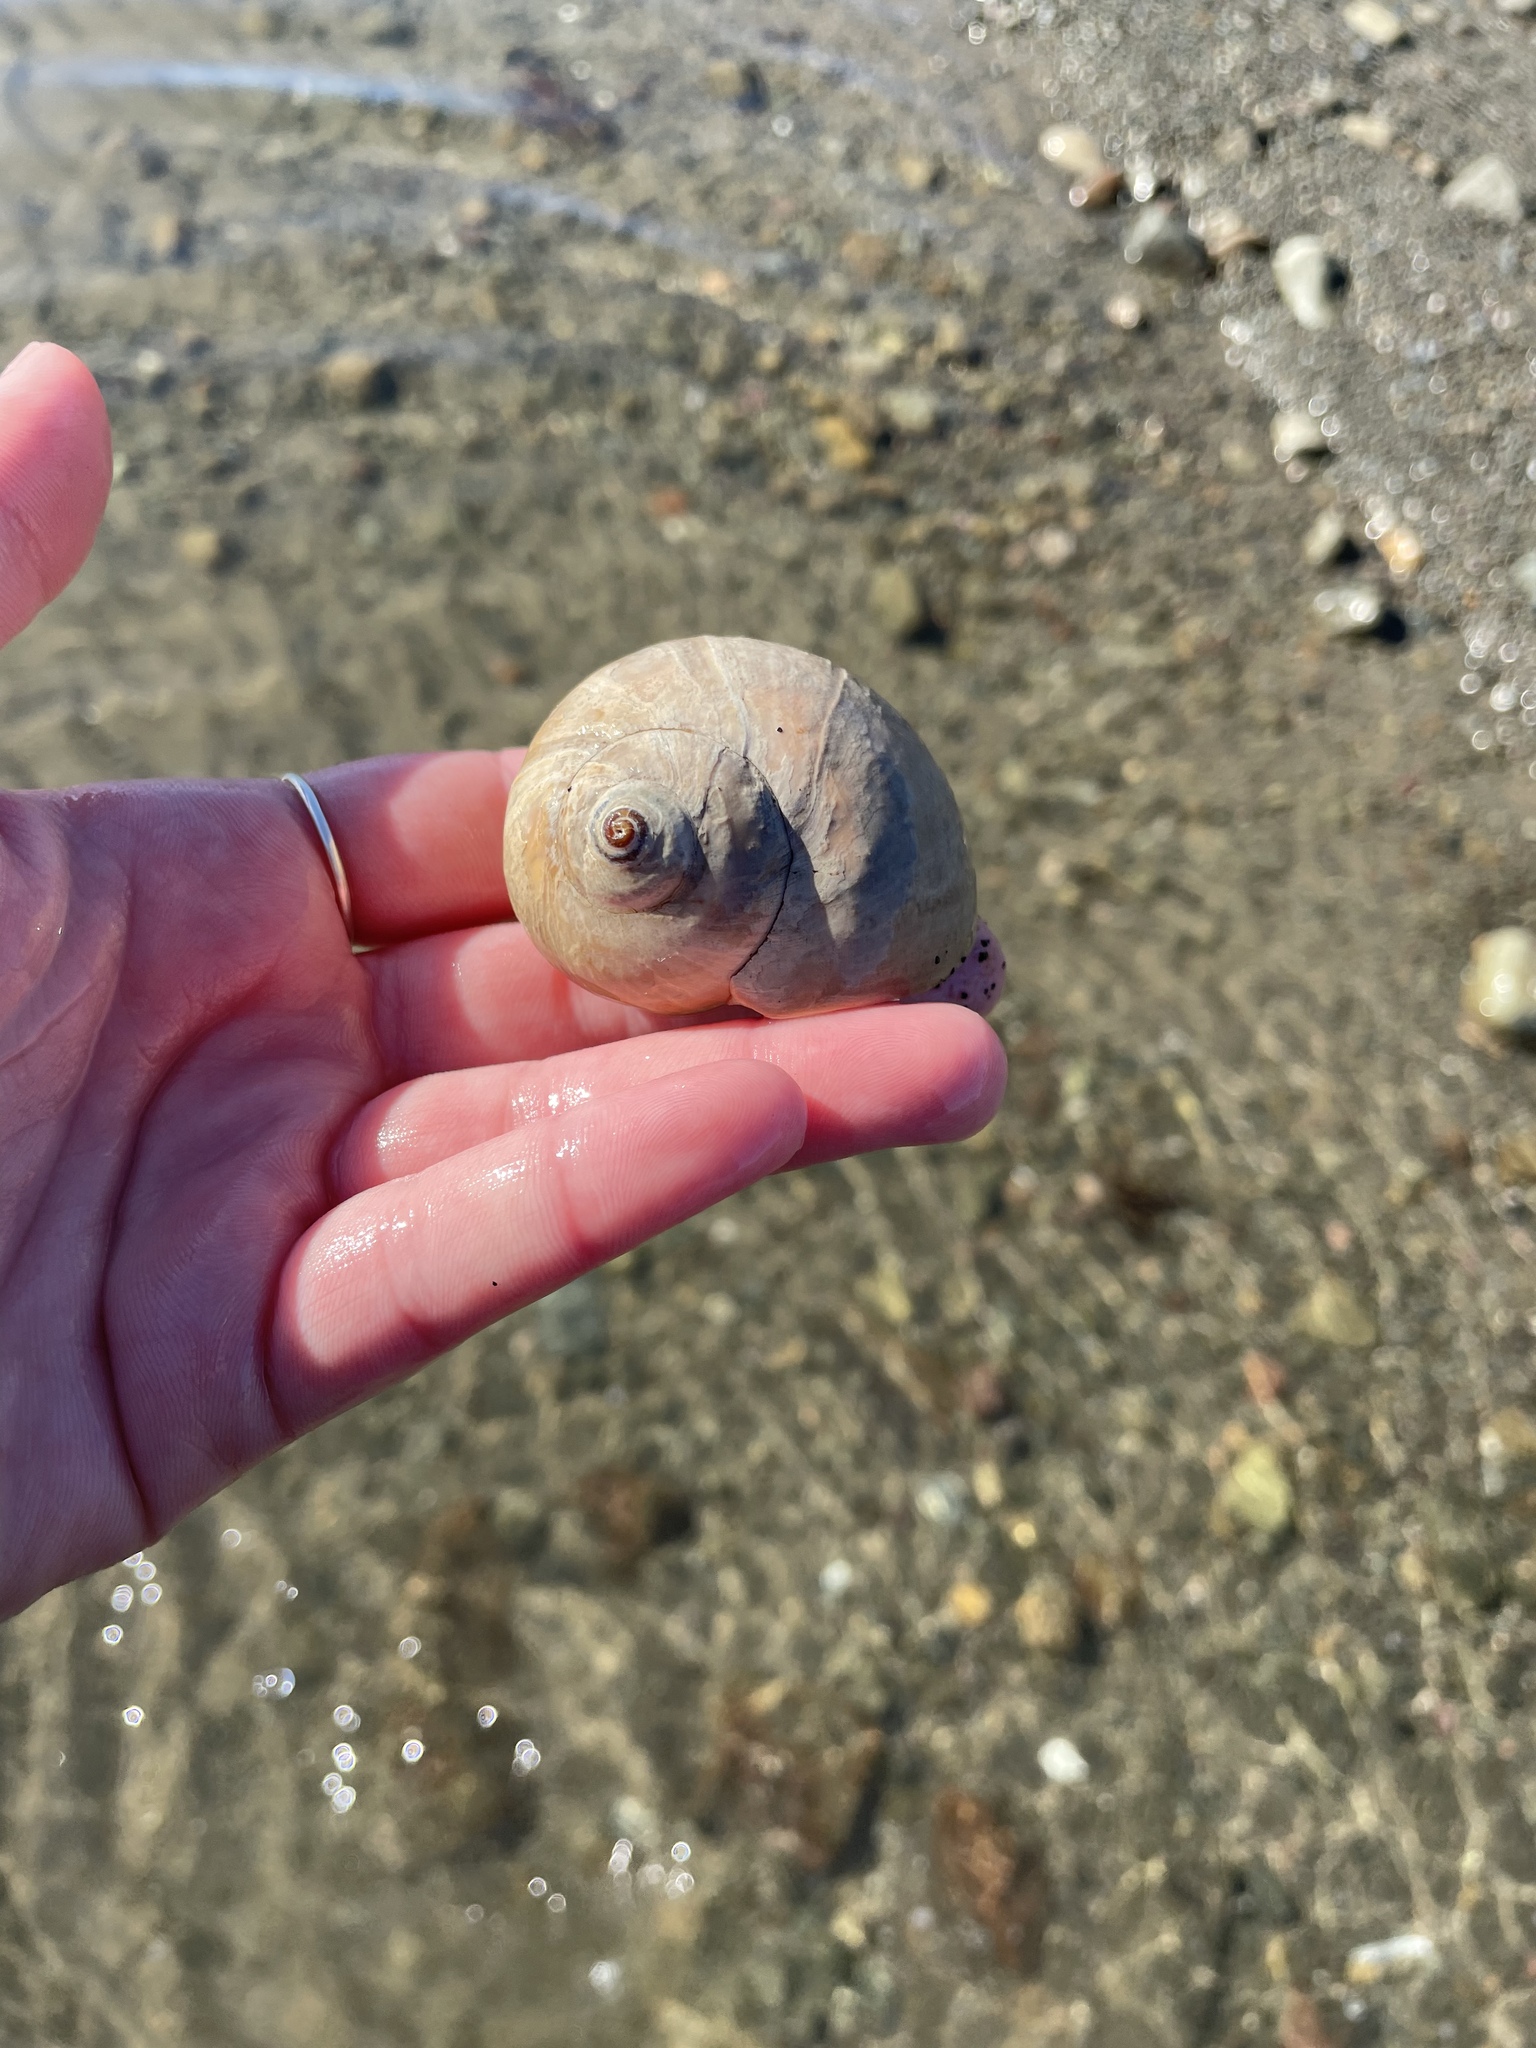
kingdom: Animalia
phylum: Mollusca
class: Gastropoda
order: Littorinimorpha
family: Naticidae
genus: Euspira
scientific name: Euspira heros
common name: Common northern moonsnail
